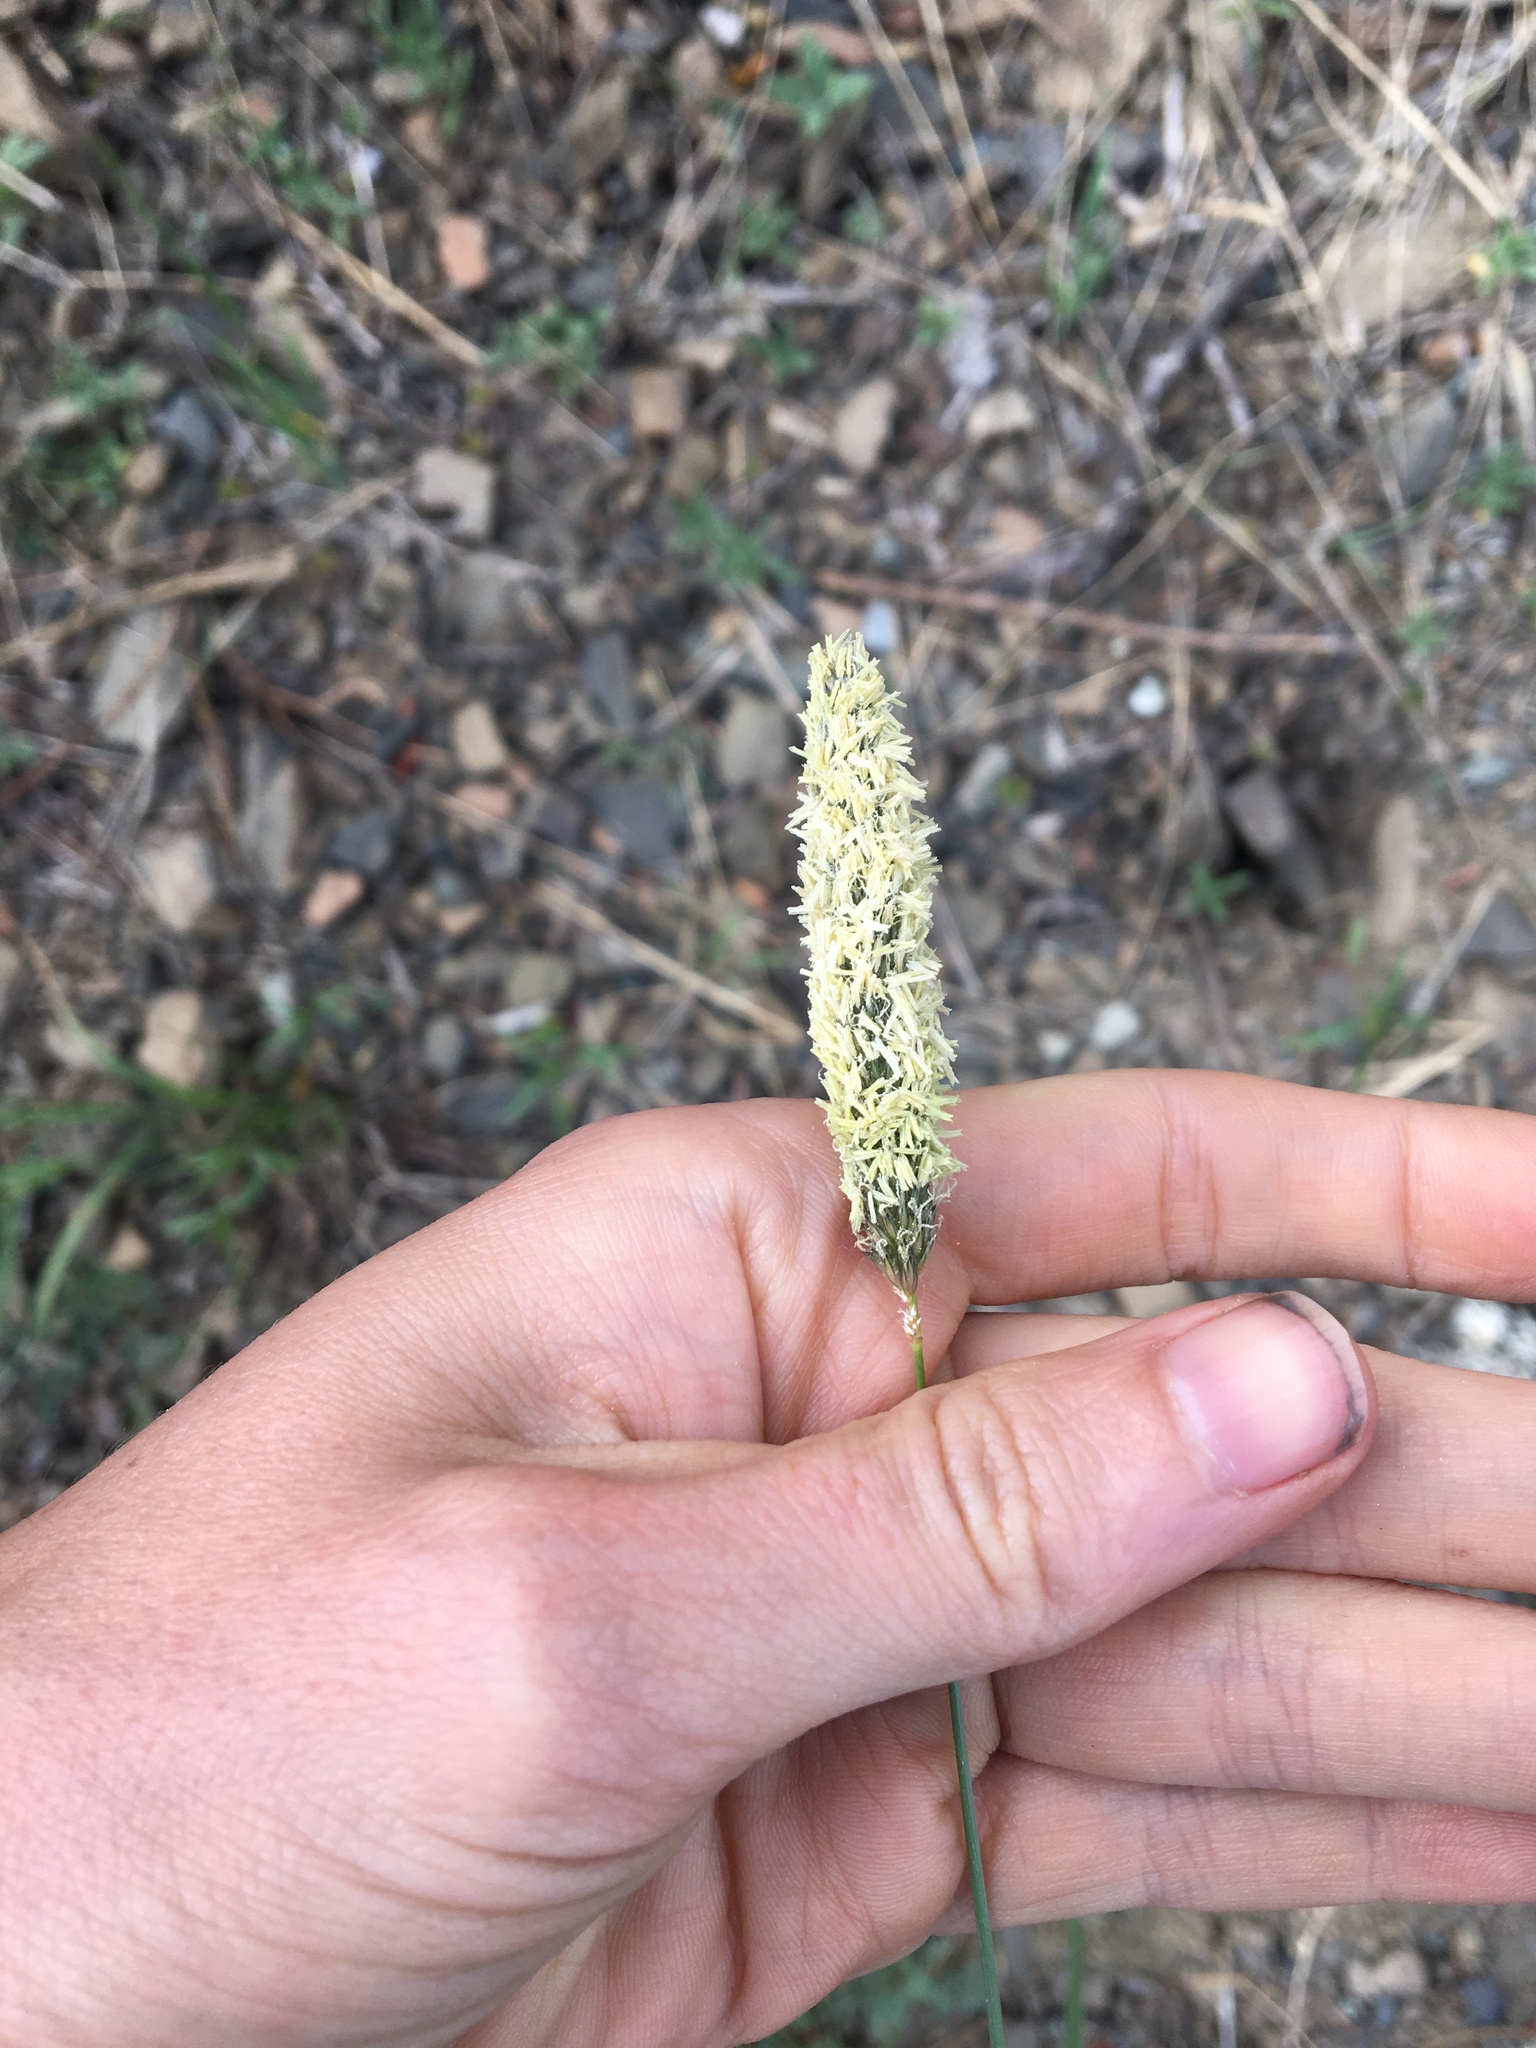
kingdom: Plantae
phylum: Tracheophyta
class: Liliopsida
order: Poales
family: Poaceae
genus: Alopecurus
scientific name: Alopecurus pratensis
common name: Meadow foxtail
